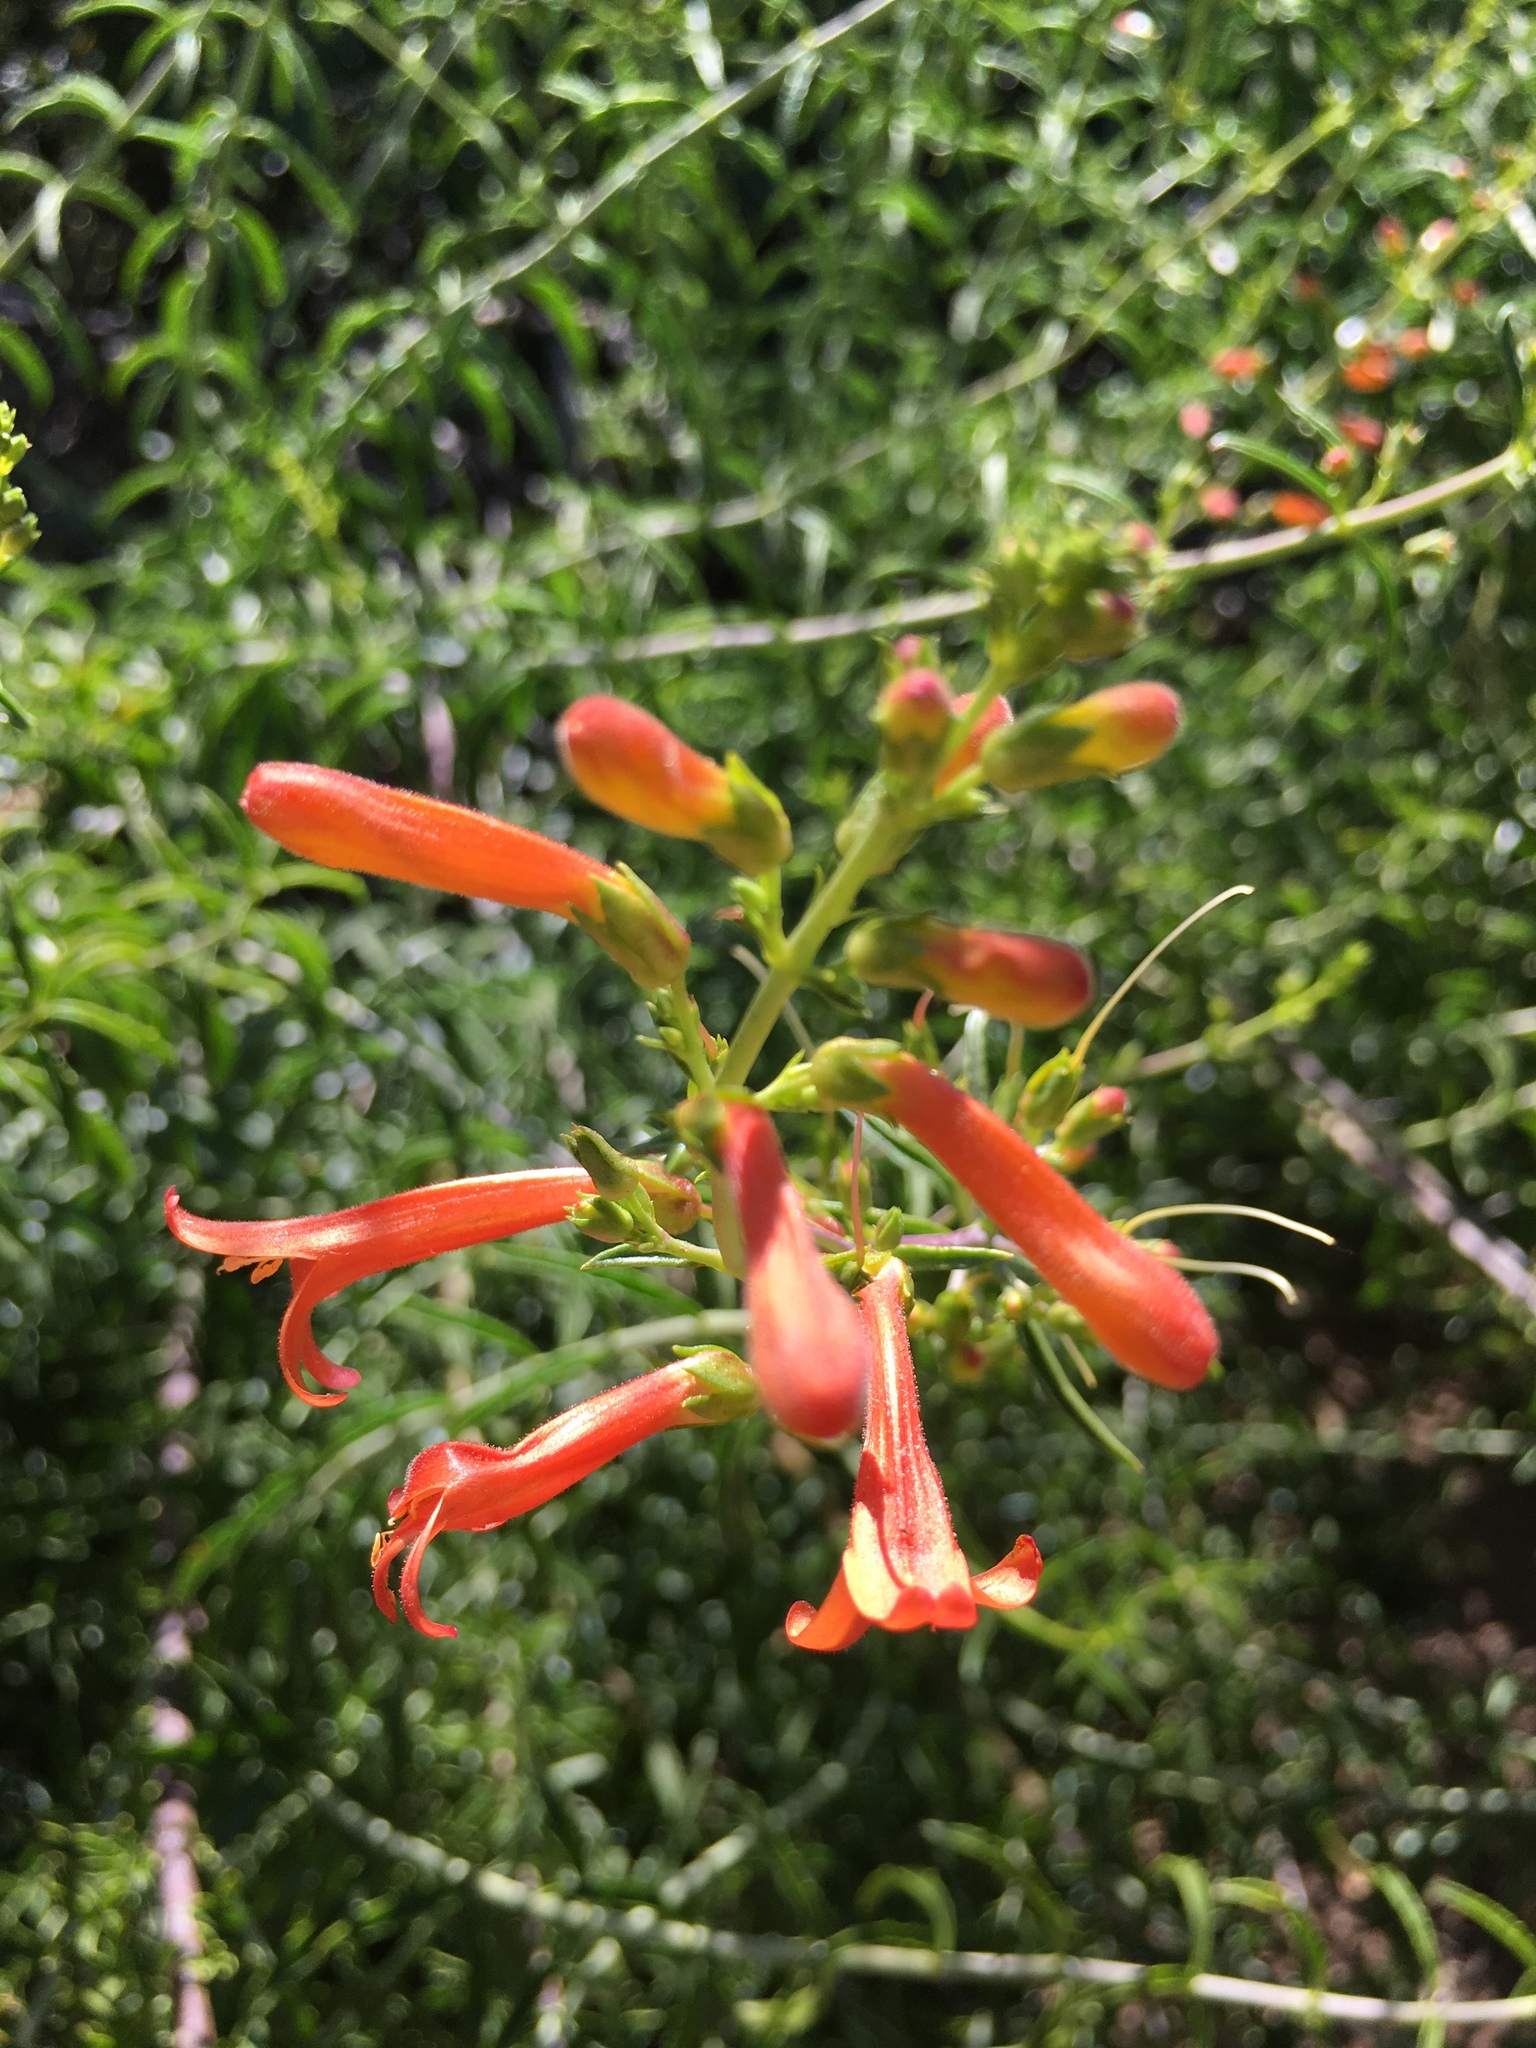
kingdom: Plantae
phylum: Tracheophyta
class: Magnoliopsida
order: Lamiales
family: Plantaginaceae
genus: Keckiella
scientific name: Keckiella ternata
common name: Scarlet keckiella
